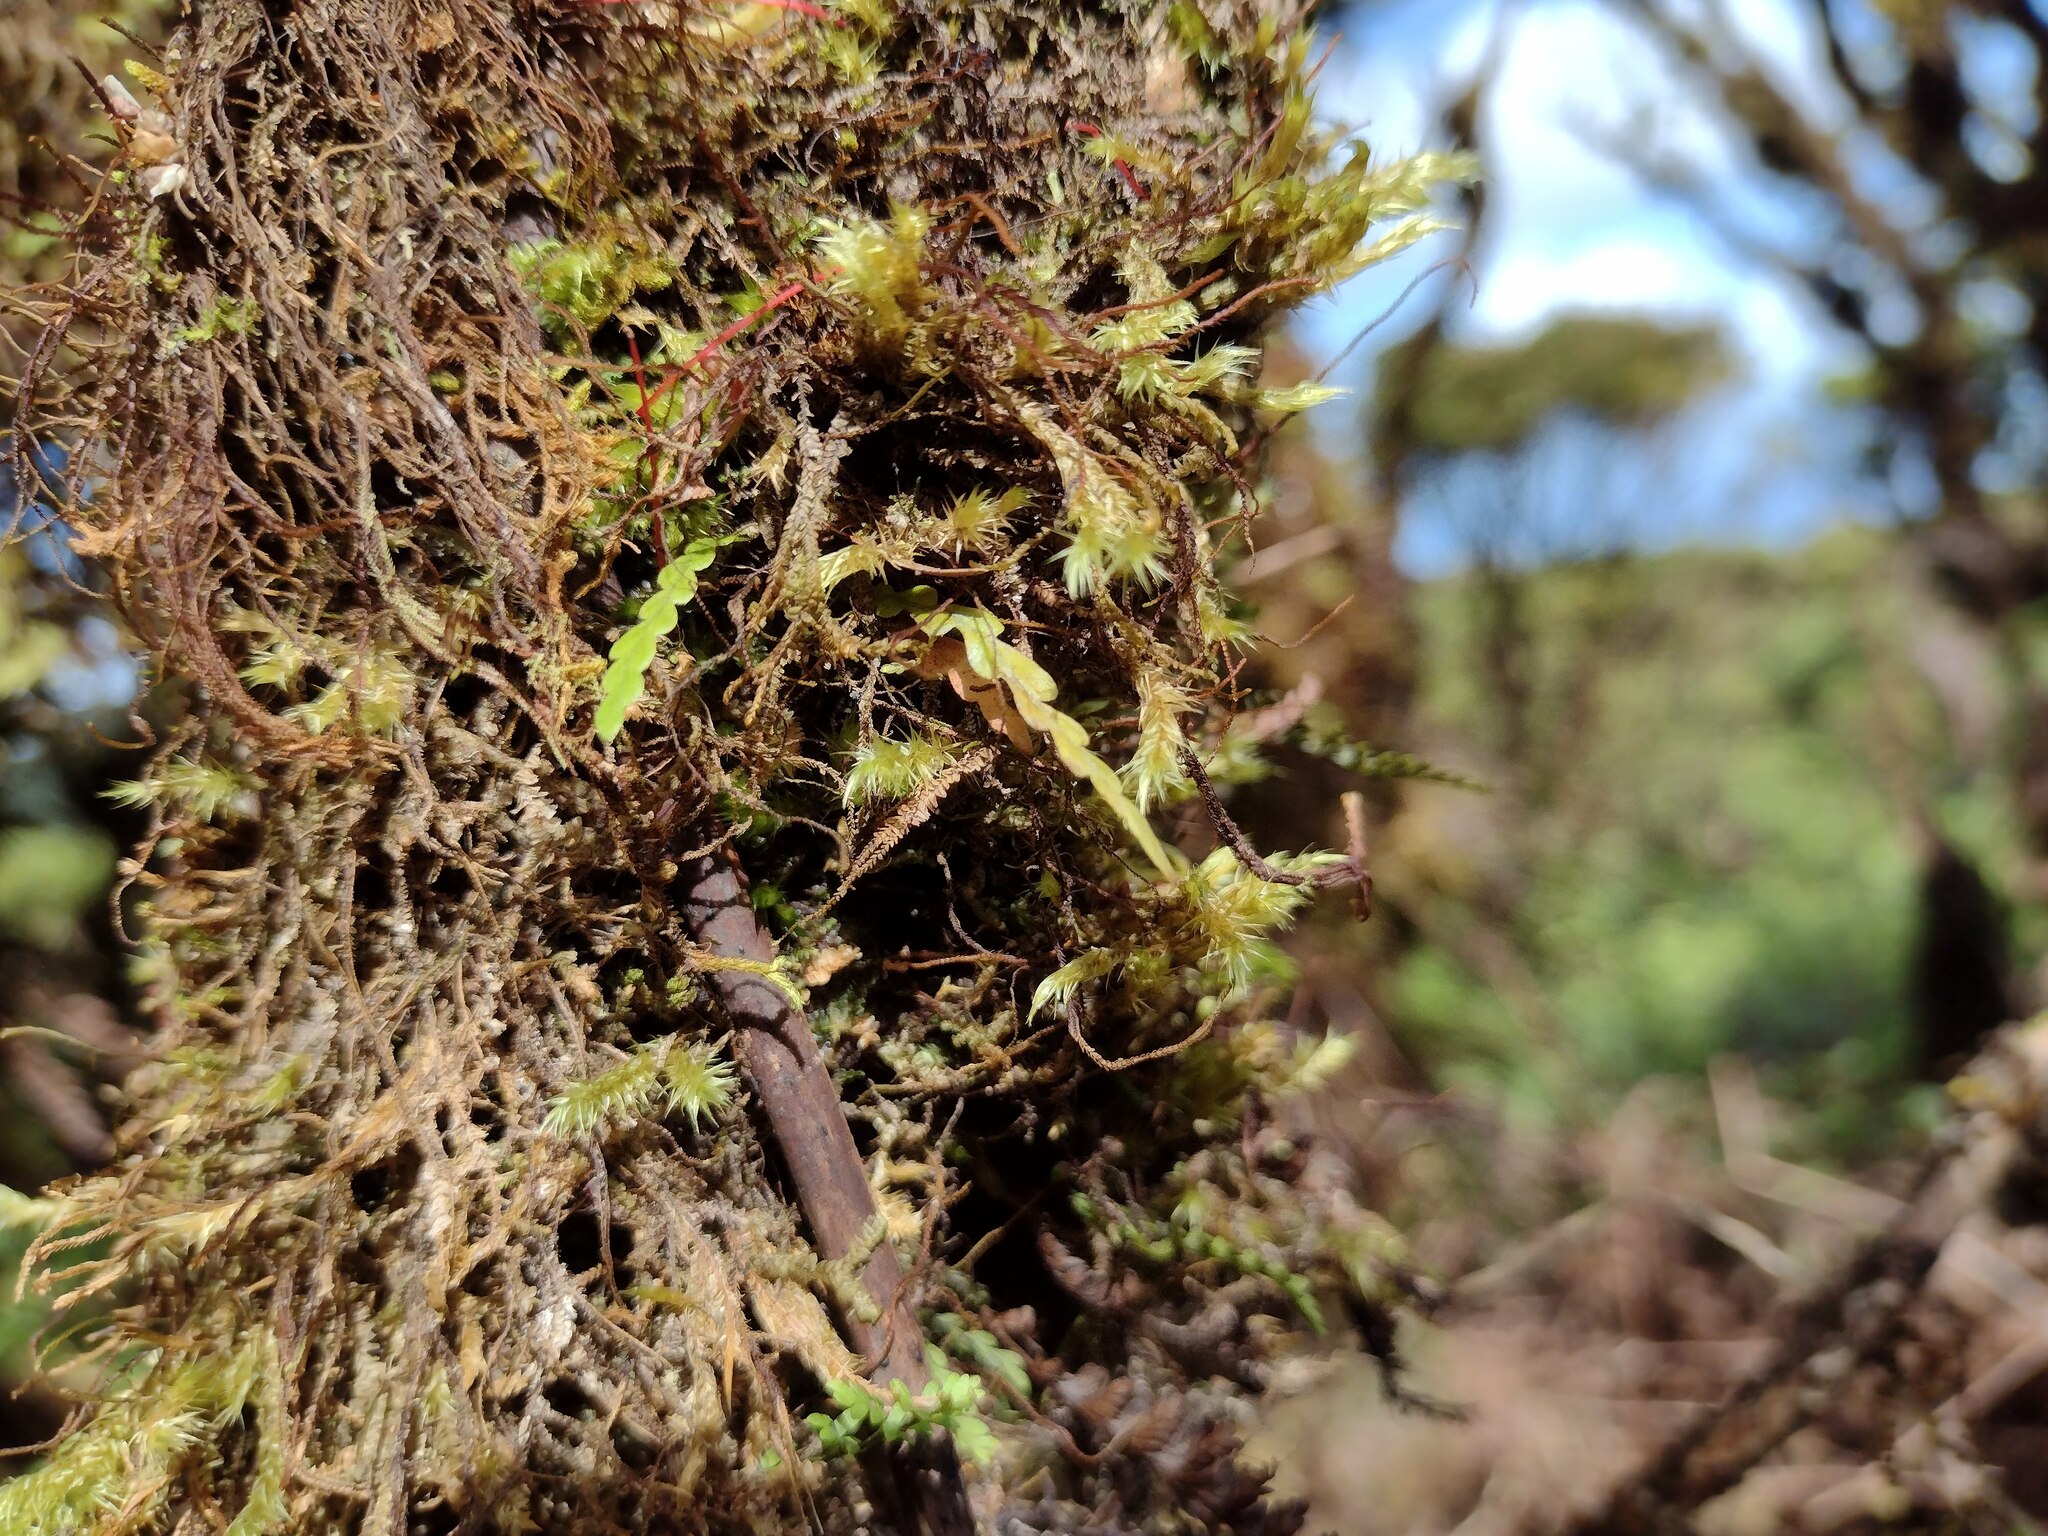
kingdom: Plantae
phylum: Tracheophyta
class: Polypodiopsida
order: Polypodiales
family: Polypodiaceae
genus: Adenophorus
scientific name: Adenophorus haalilioanus
